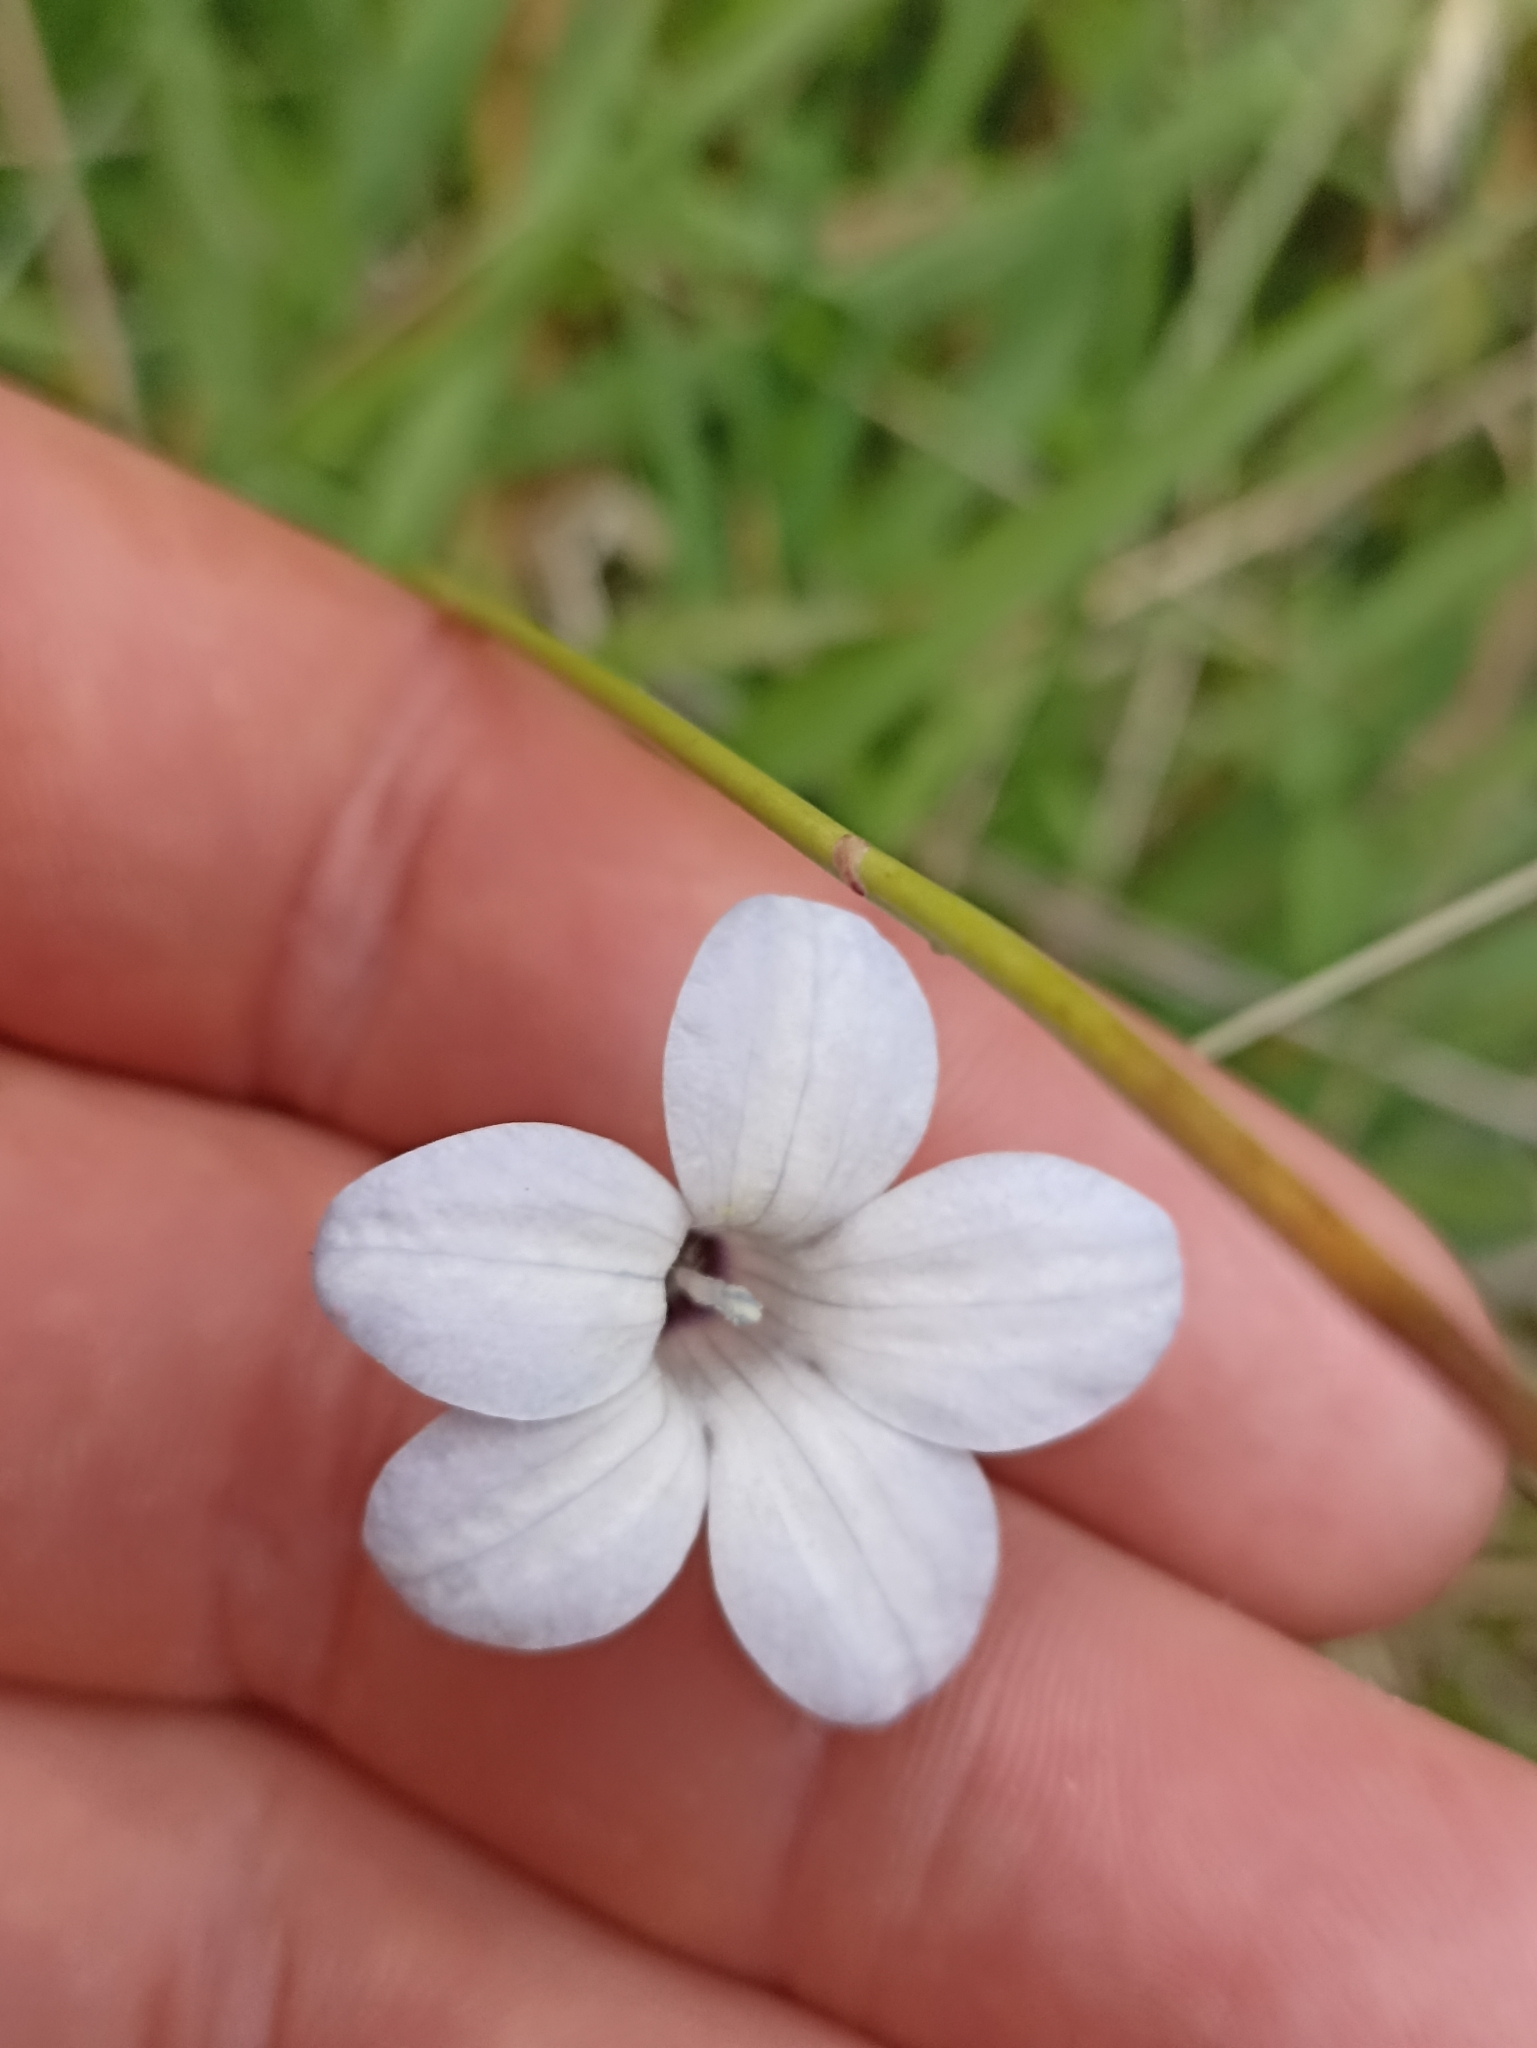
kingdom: Plantae
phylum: Tracheophyta
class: Magnoliopsida
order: Asterales
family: Campanulaceae
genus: Wahlenbergia
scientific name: Wahlenbergia albomarginata
